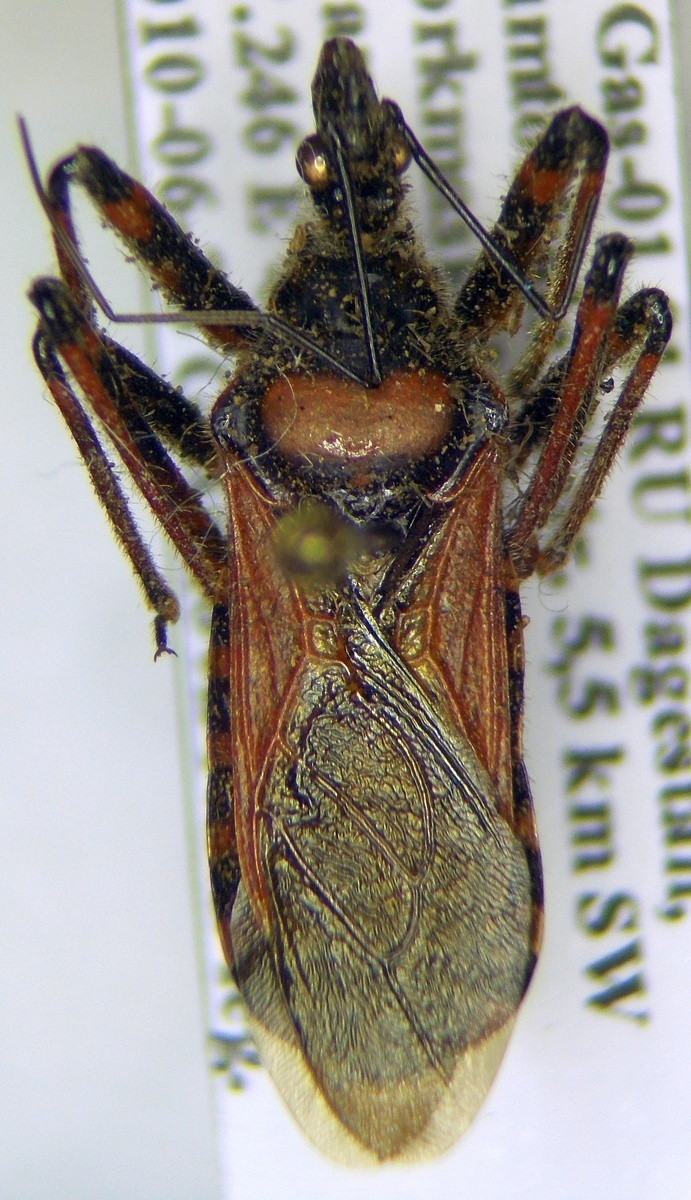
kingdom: Animalia
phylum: Arthropoda
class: Insecta
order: Hemiptera
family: Reduviidae
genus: Rhynocoris
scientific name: Rhynocoris iracundus
